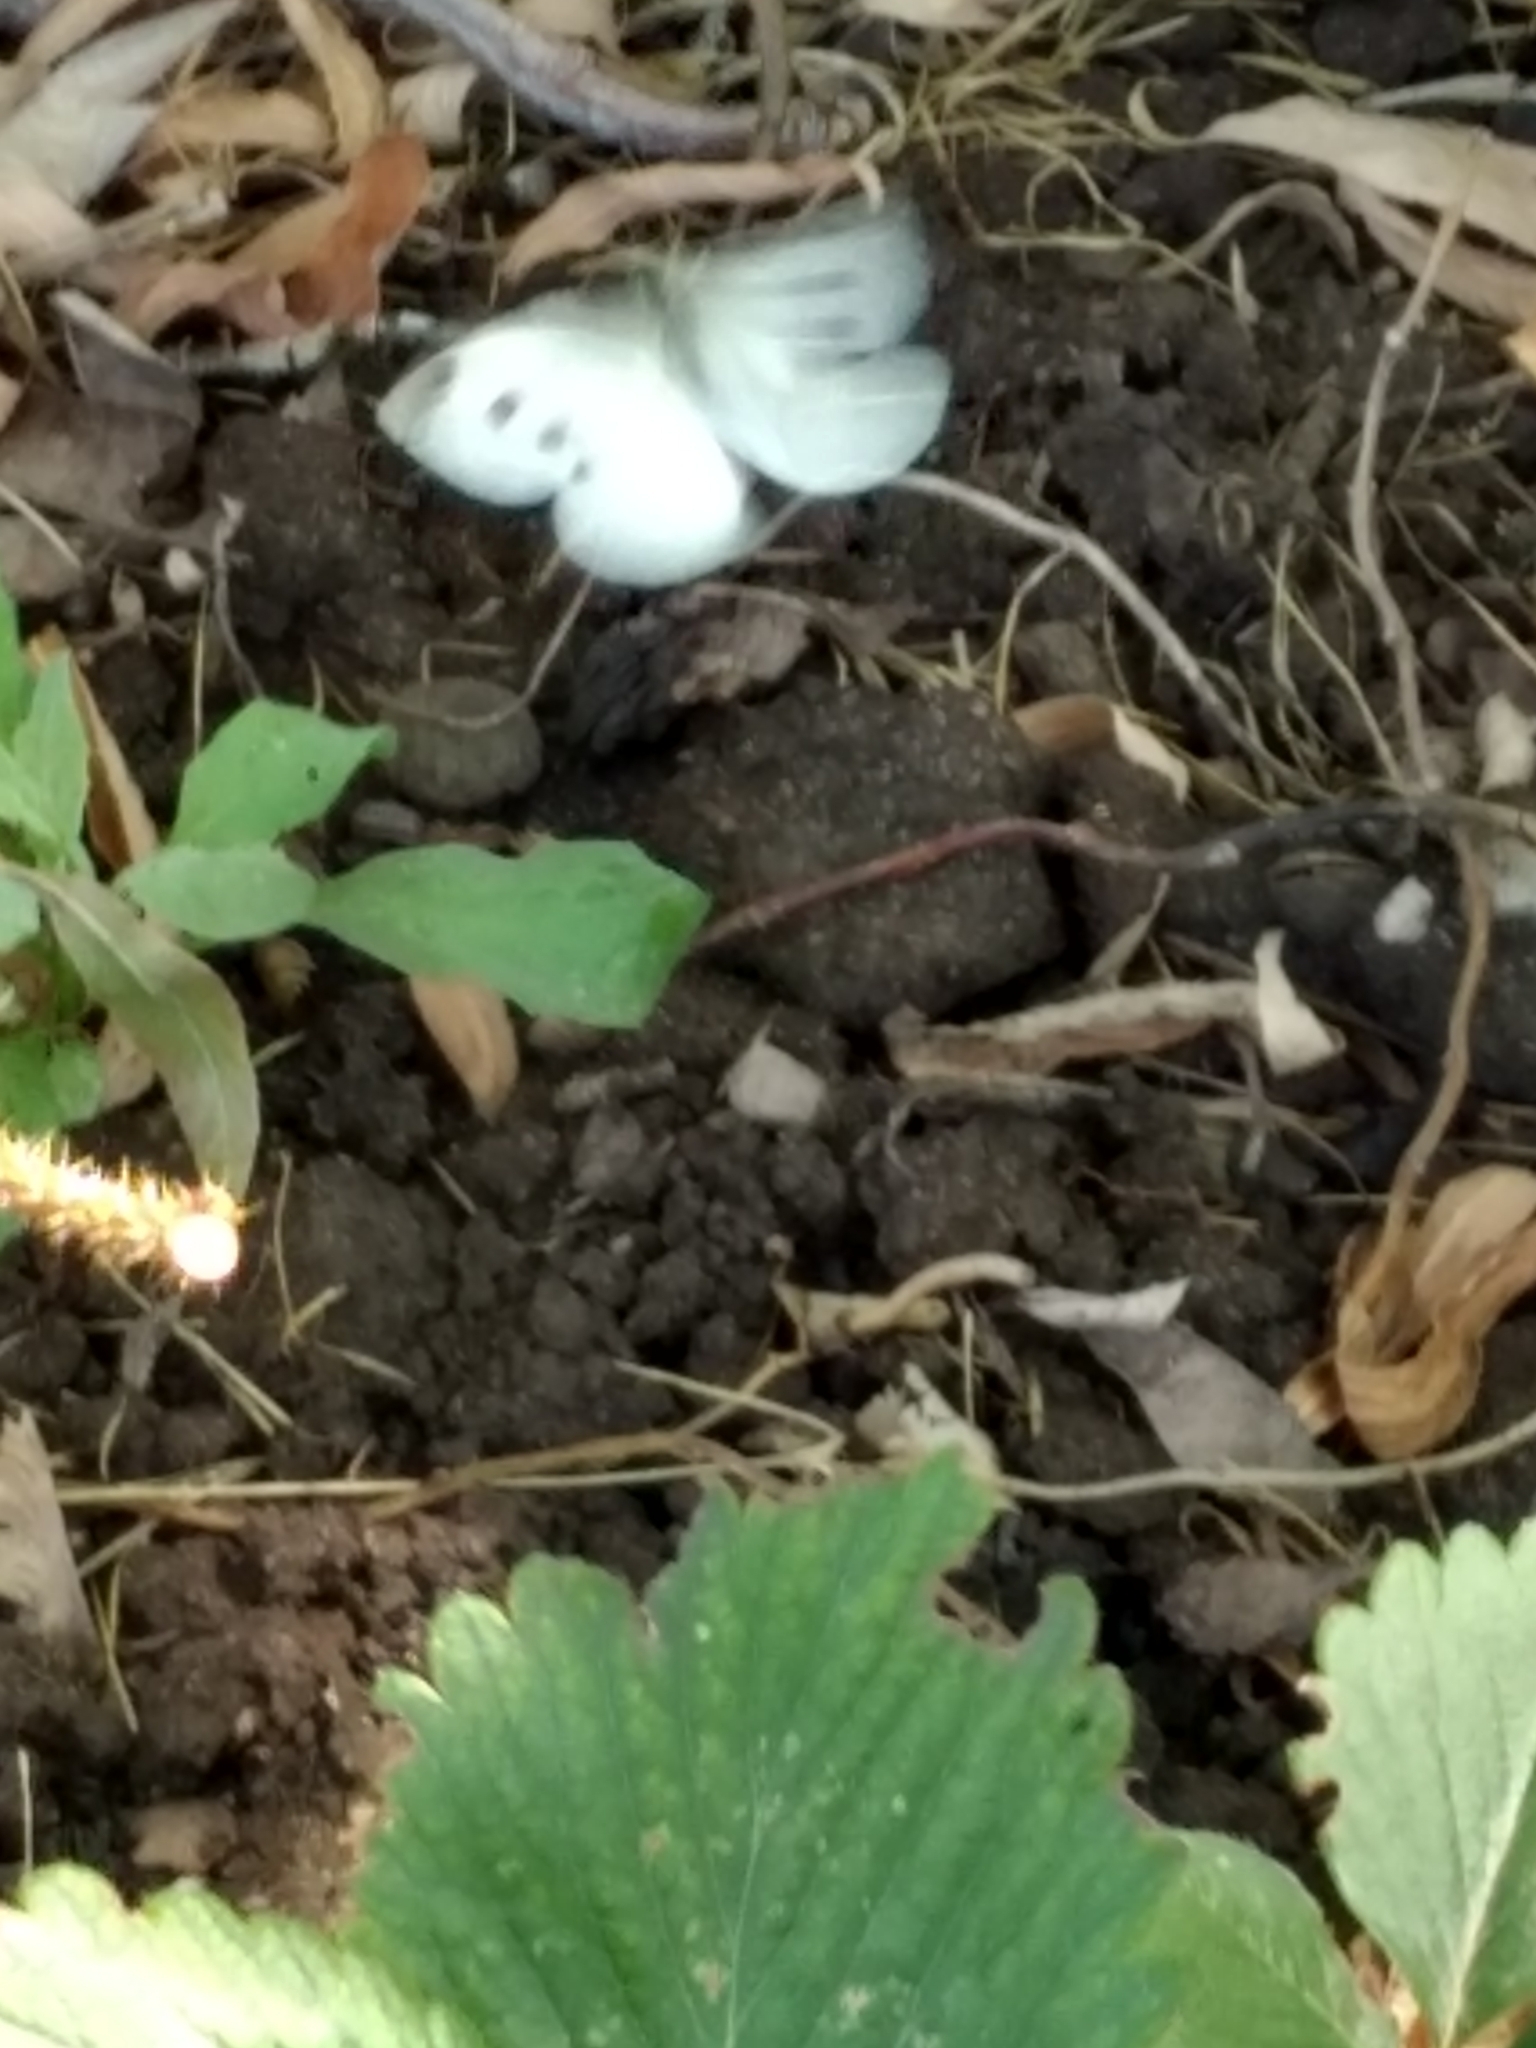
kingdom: Animalia
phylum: Arthropoda
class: Insecta
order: Lepidoptera
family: Pieridae
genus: Pieris
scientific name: Pieris rapae
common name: Small white
